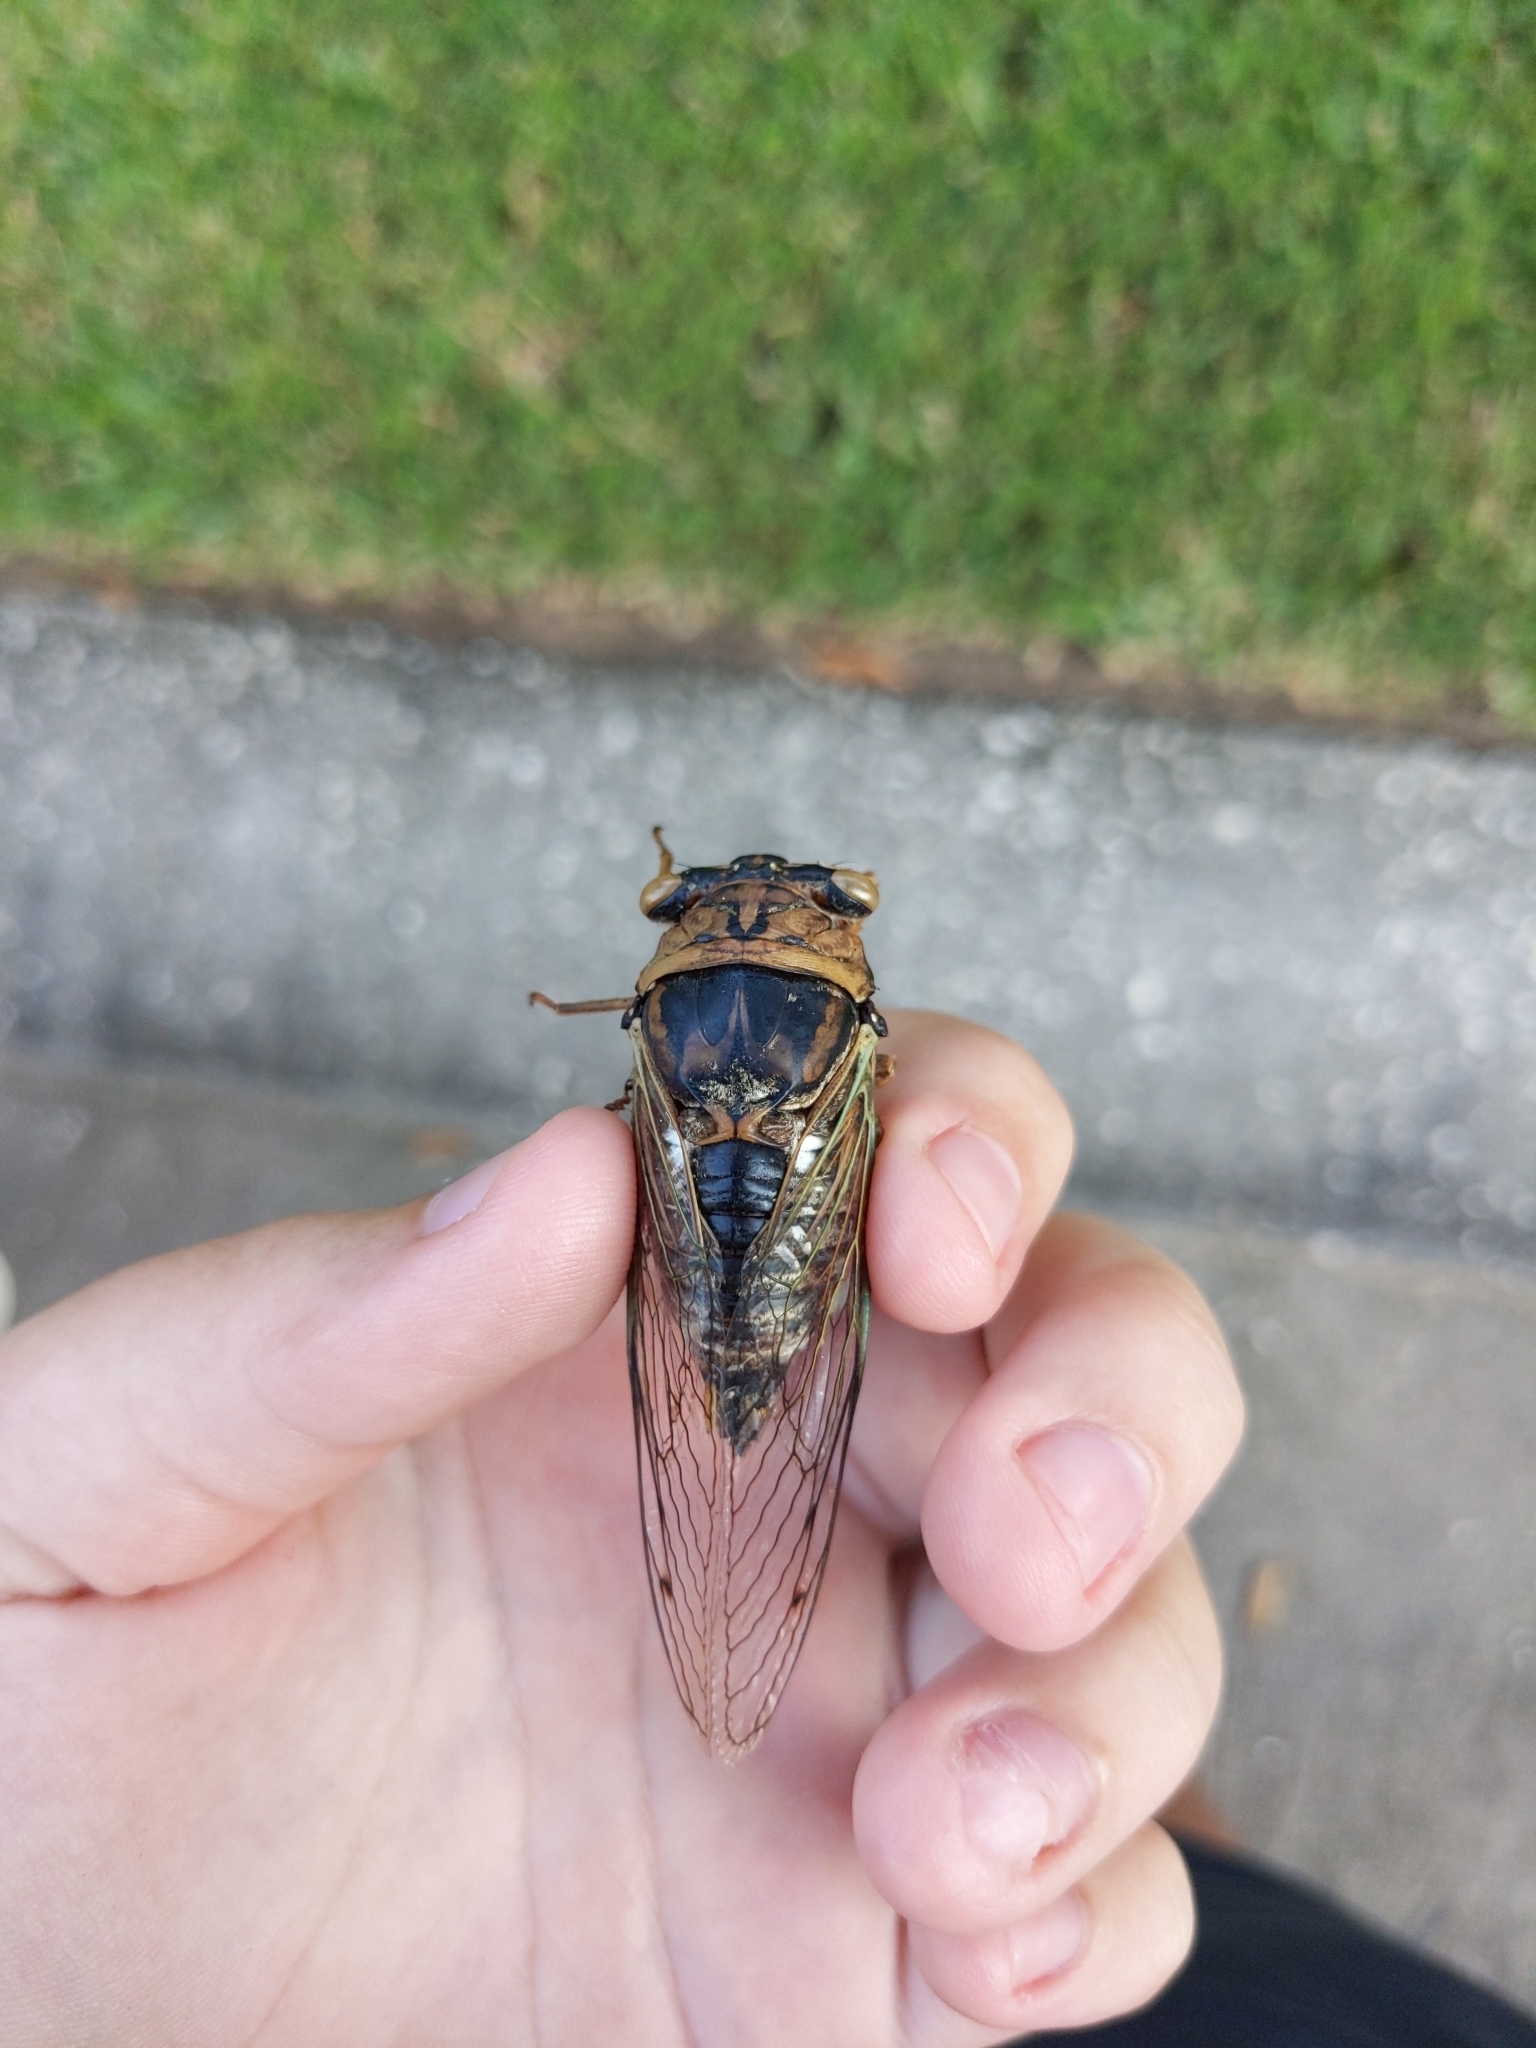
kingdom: Animalia
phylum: Arthropoda
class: Insecta
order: Hemiptera
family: Cicadidae
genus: Megatibicen
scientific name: Megatibicen resh
